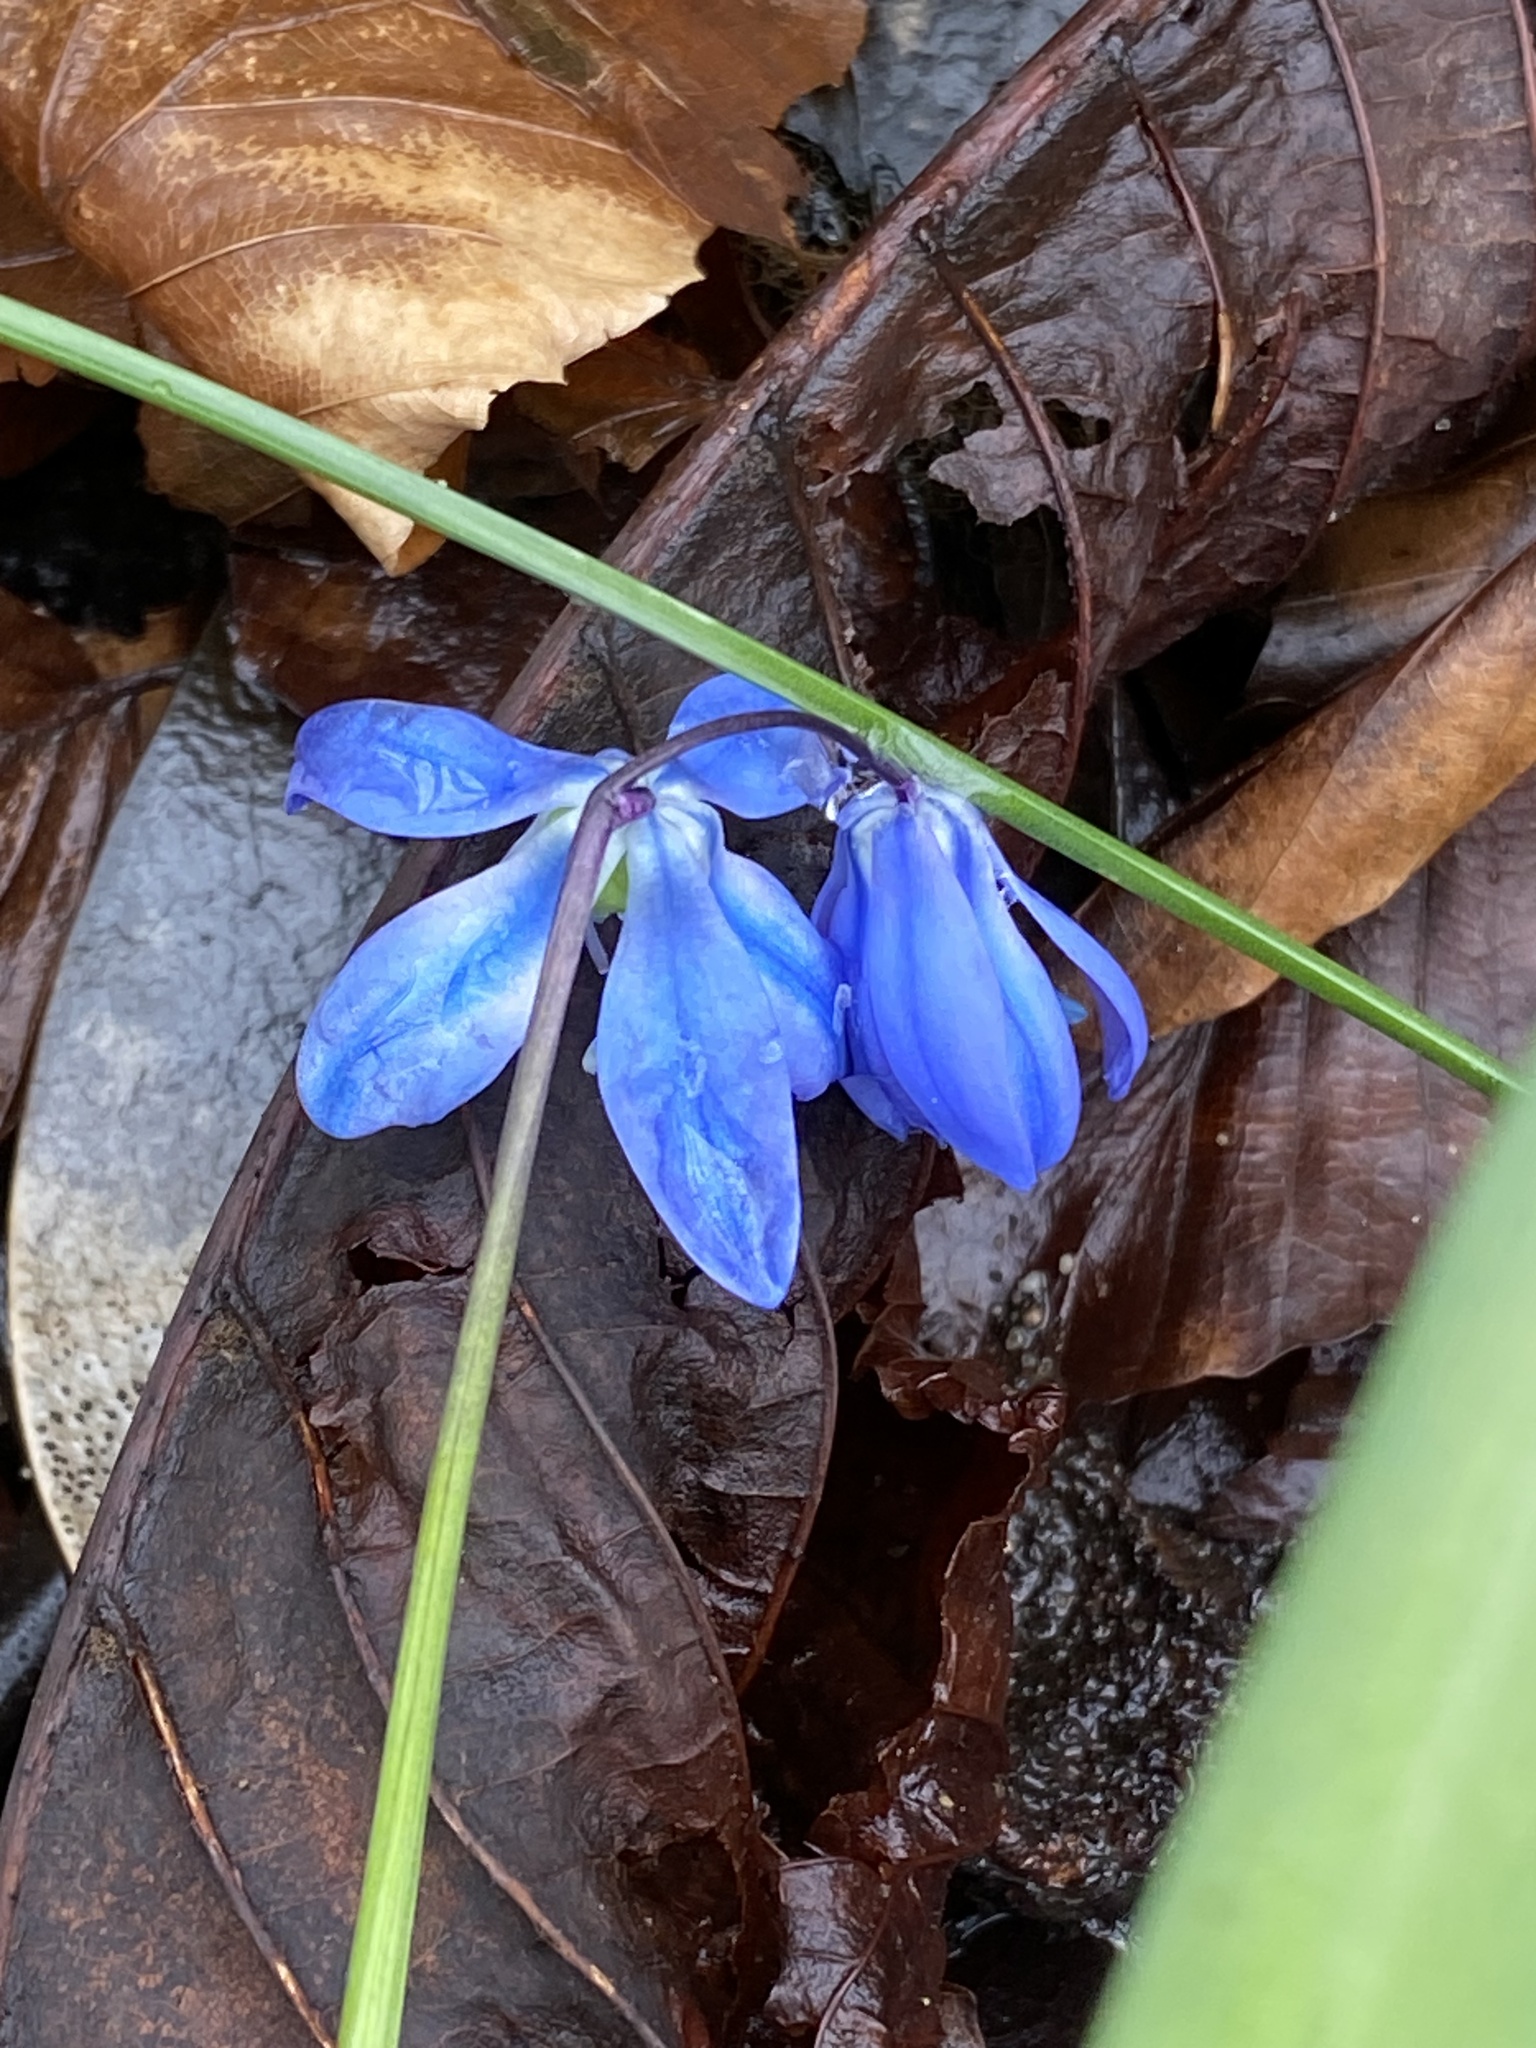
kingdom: Plantae
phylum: Tracheophyta
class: Liliopsida
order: Asparagales
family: Asparagaceae
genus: Scilla
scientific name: Scilla siberica
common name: Siberian squill
